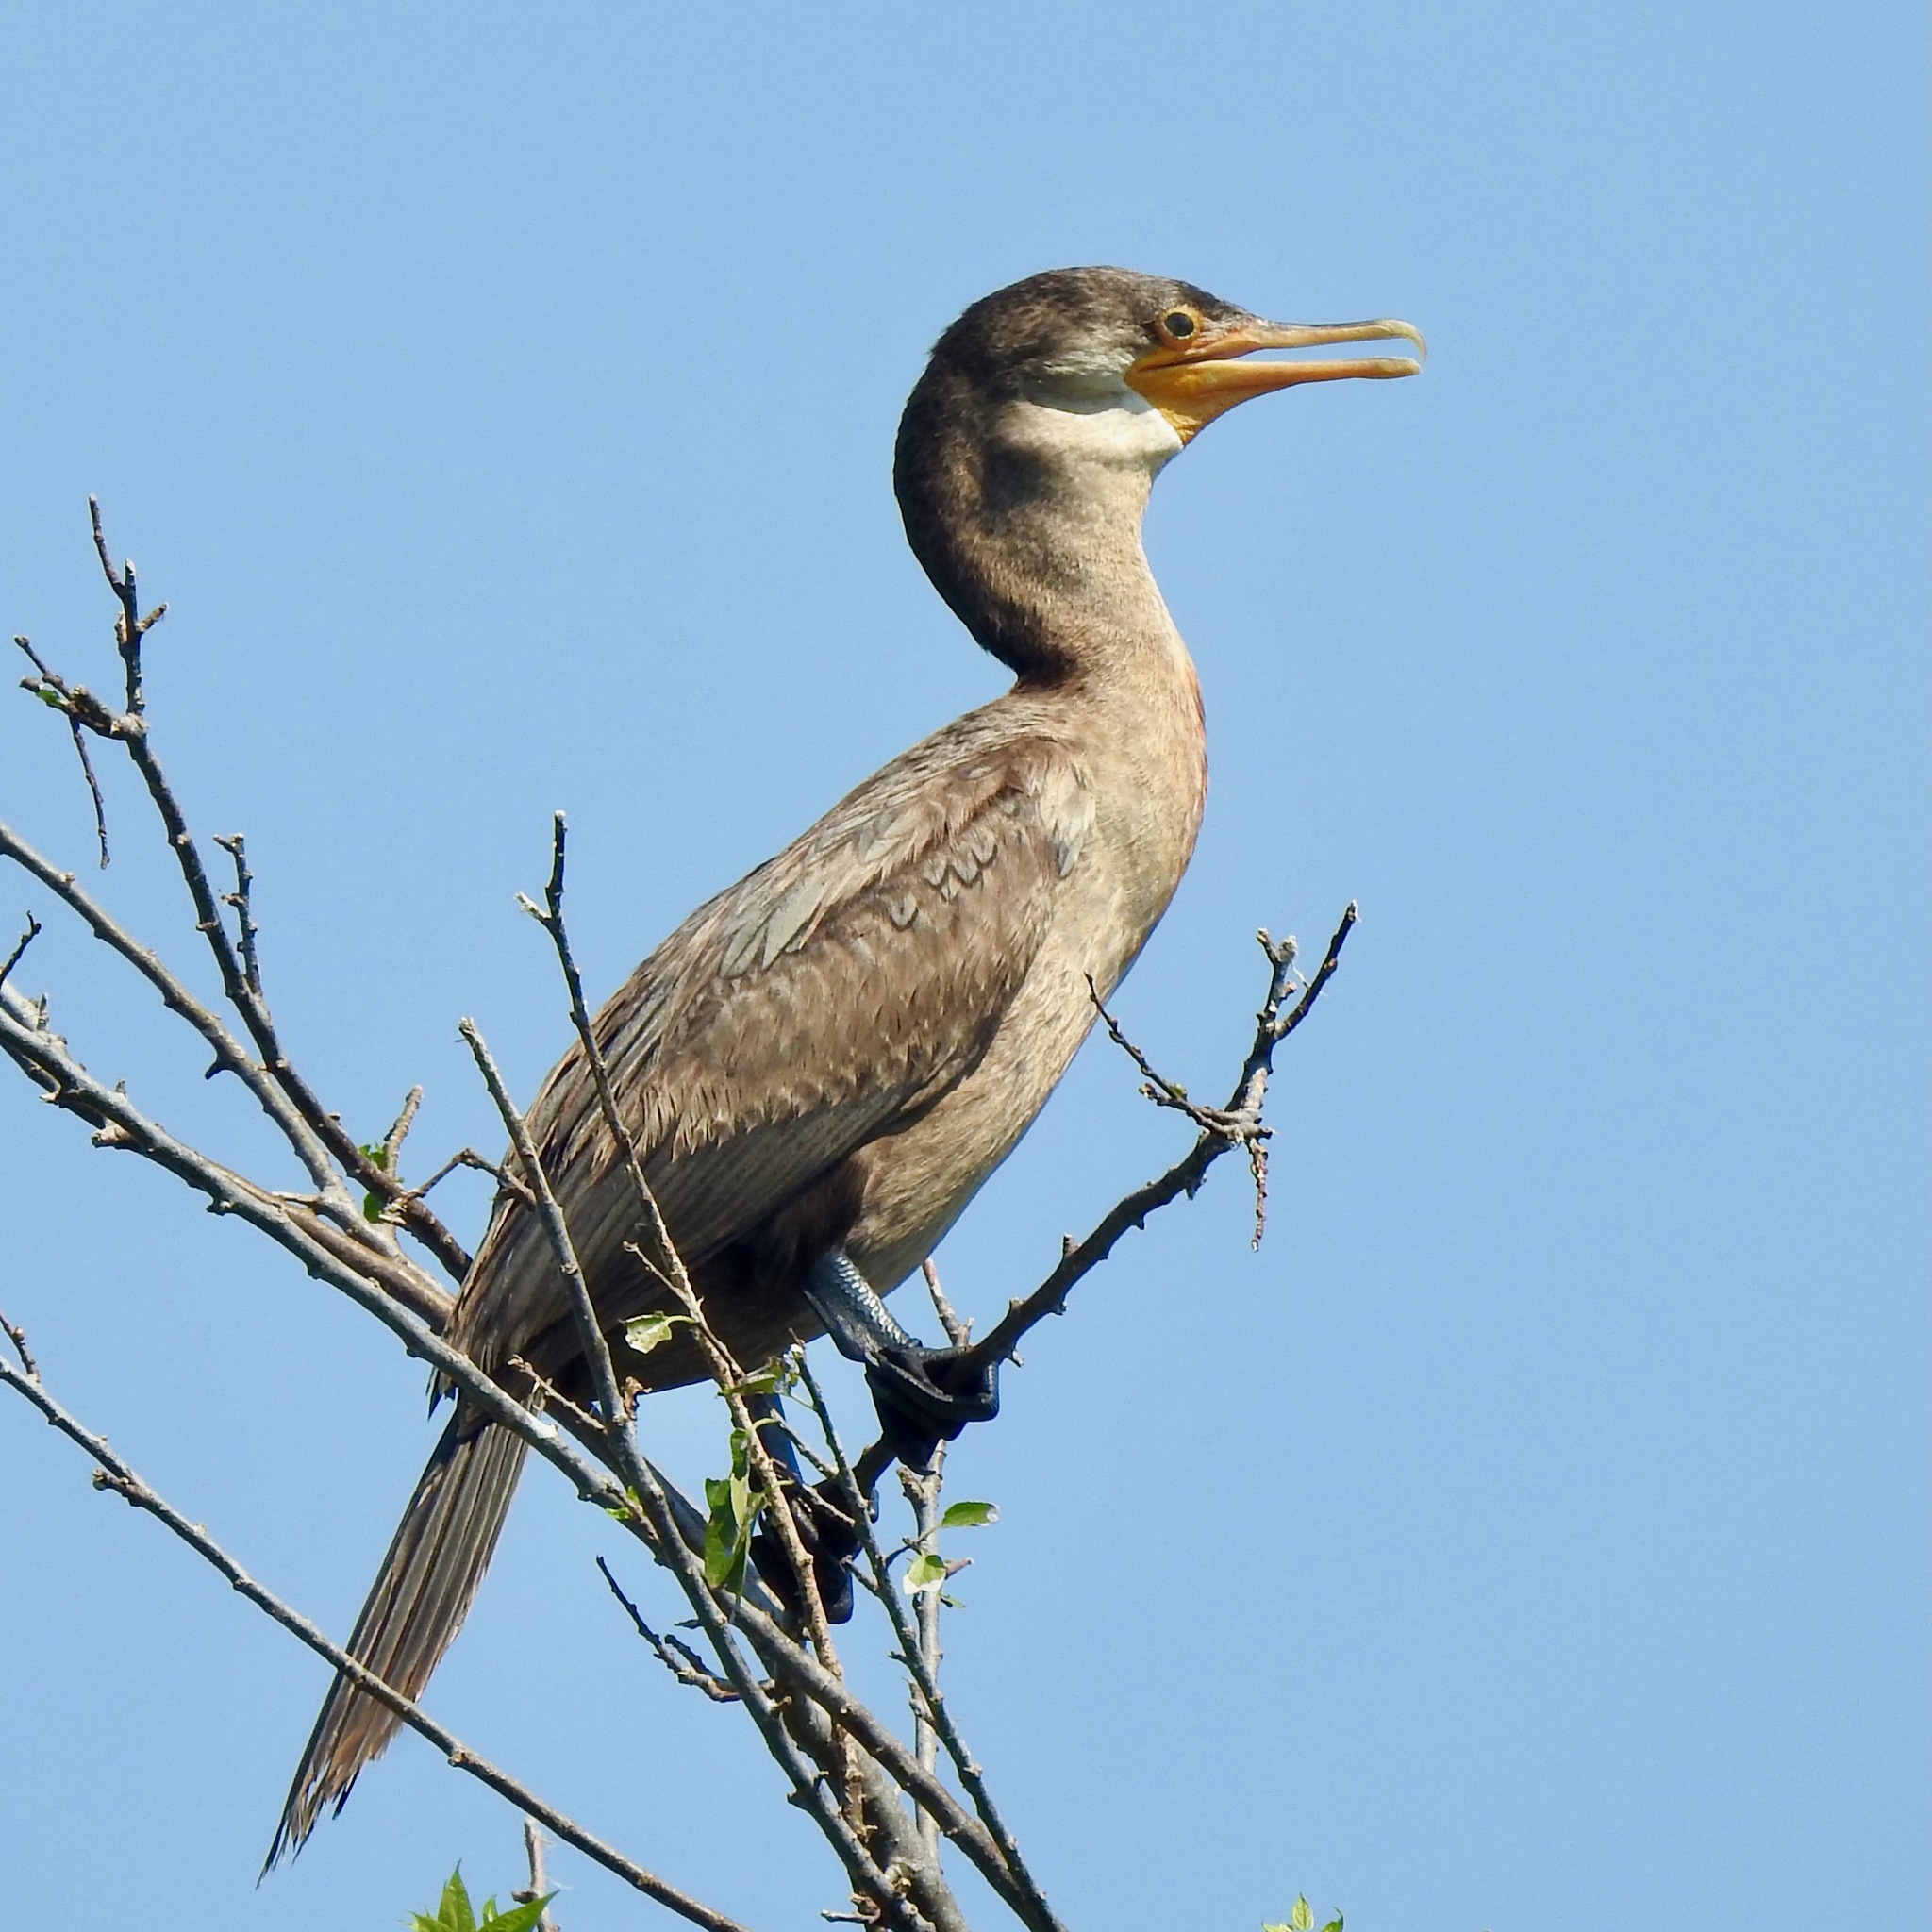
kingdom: Animalia
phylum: Chordata
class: Aves
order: Suliformes
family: Phalacrocoracidae
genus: Phalacrocorax
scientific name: Phalacrocorax auritus
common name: Double-crested cormorant
